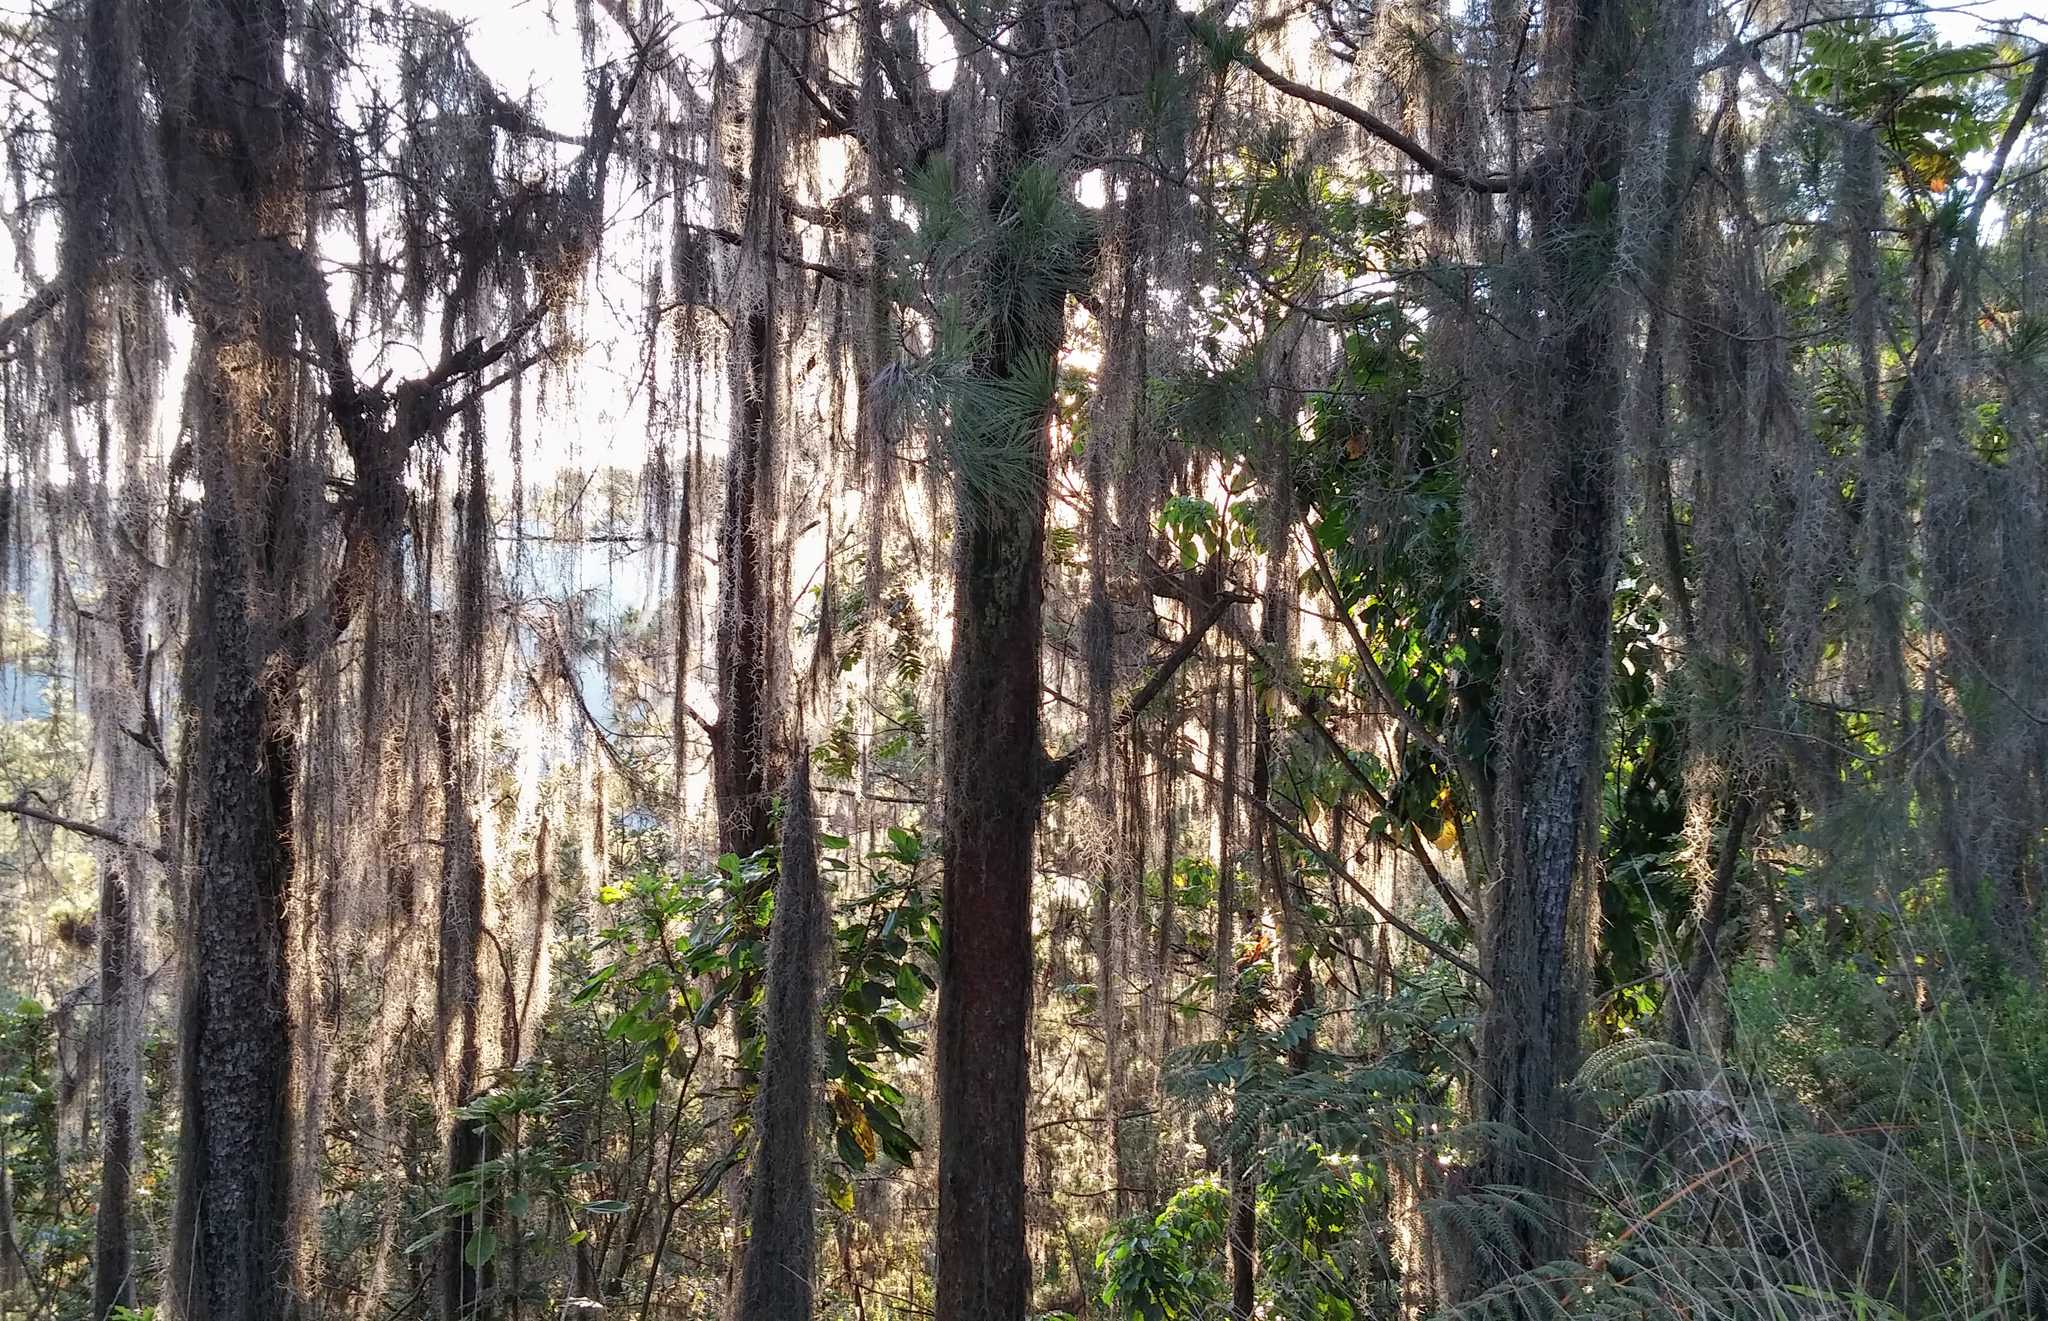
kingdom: Plantae
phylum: Tracheophyta
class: Liliopsida
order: Poales
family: Bromeliaceae
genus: Tillandsia
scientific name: Tillandsia usneoides
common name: Spanish moss
